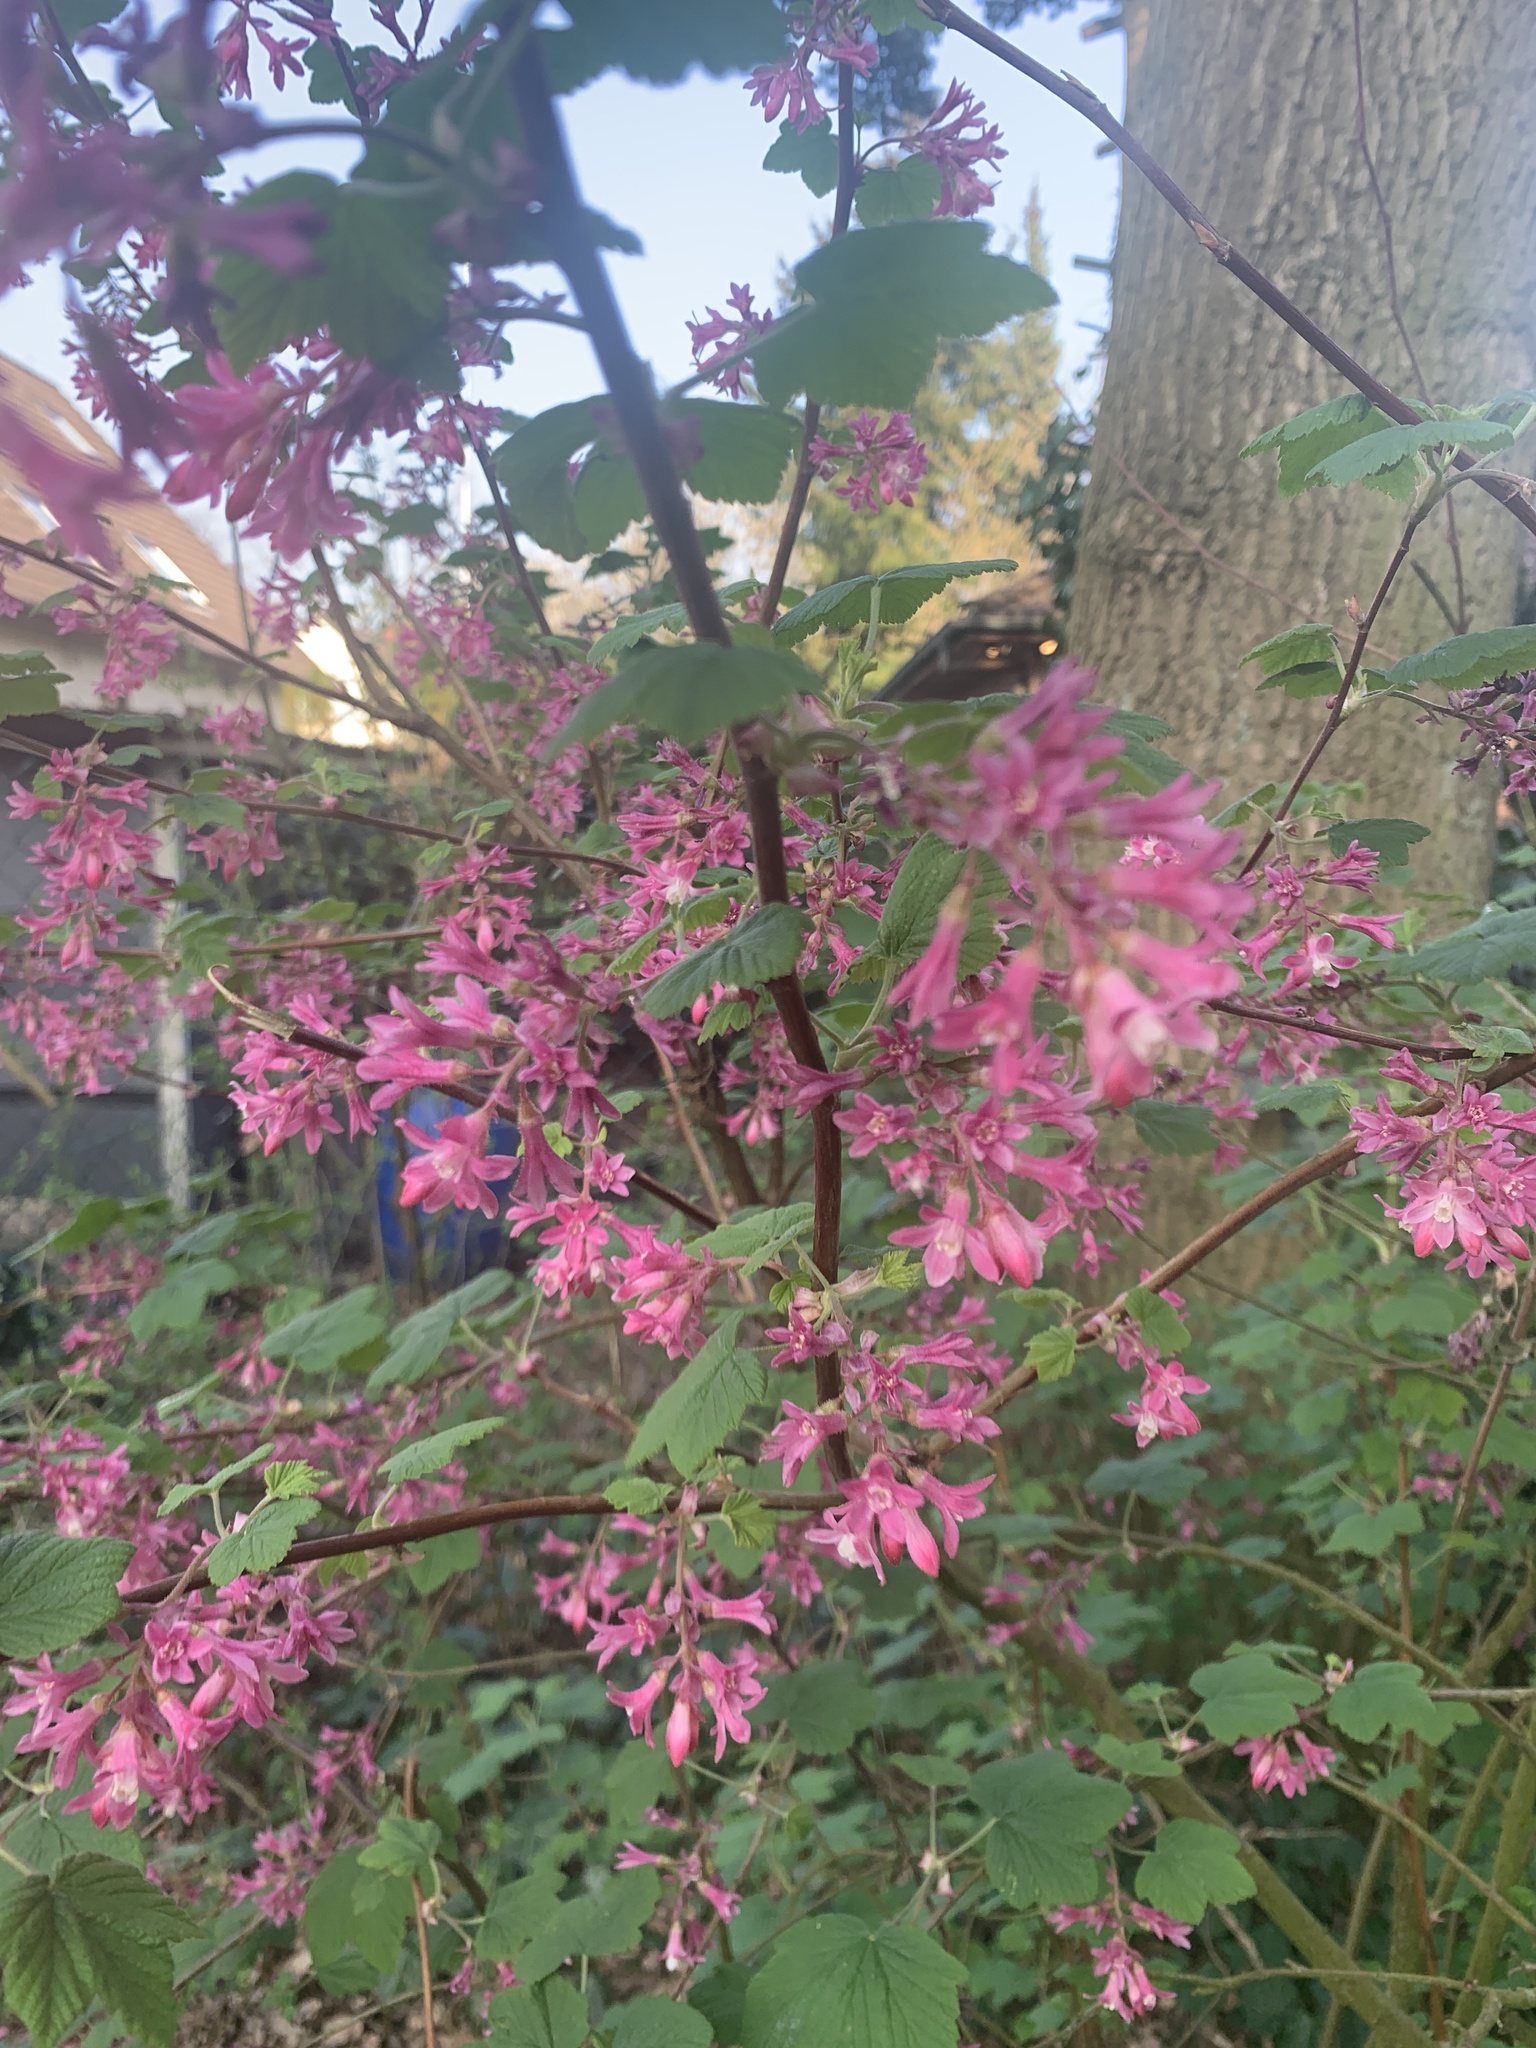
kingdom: Plantae
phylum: Tracheophyta
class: Magnoliopsida
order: Saxifragales
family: Grossulariaceae
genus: Ribes
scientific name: Ribes sanguineum
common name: Flowering currant
